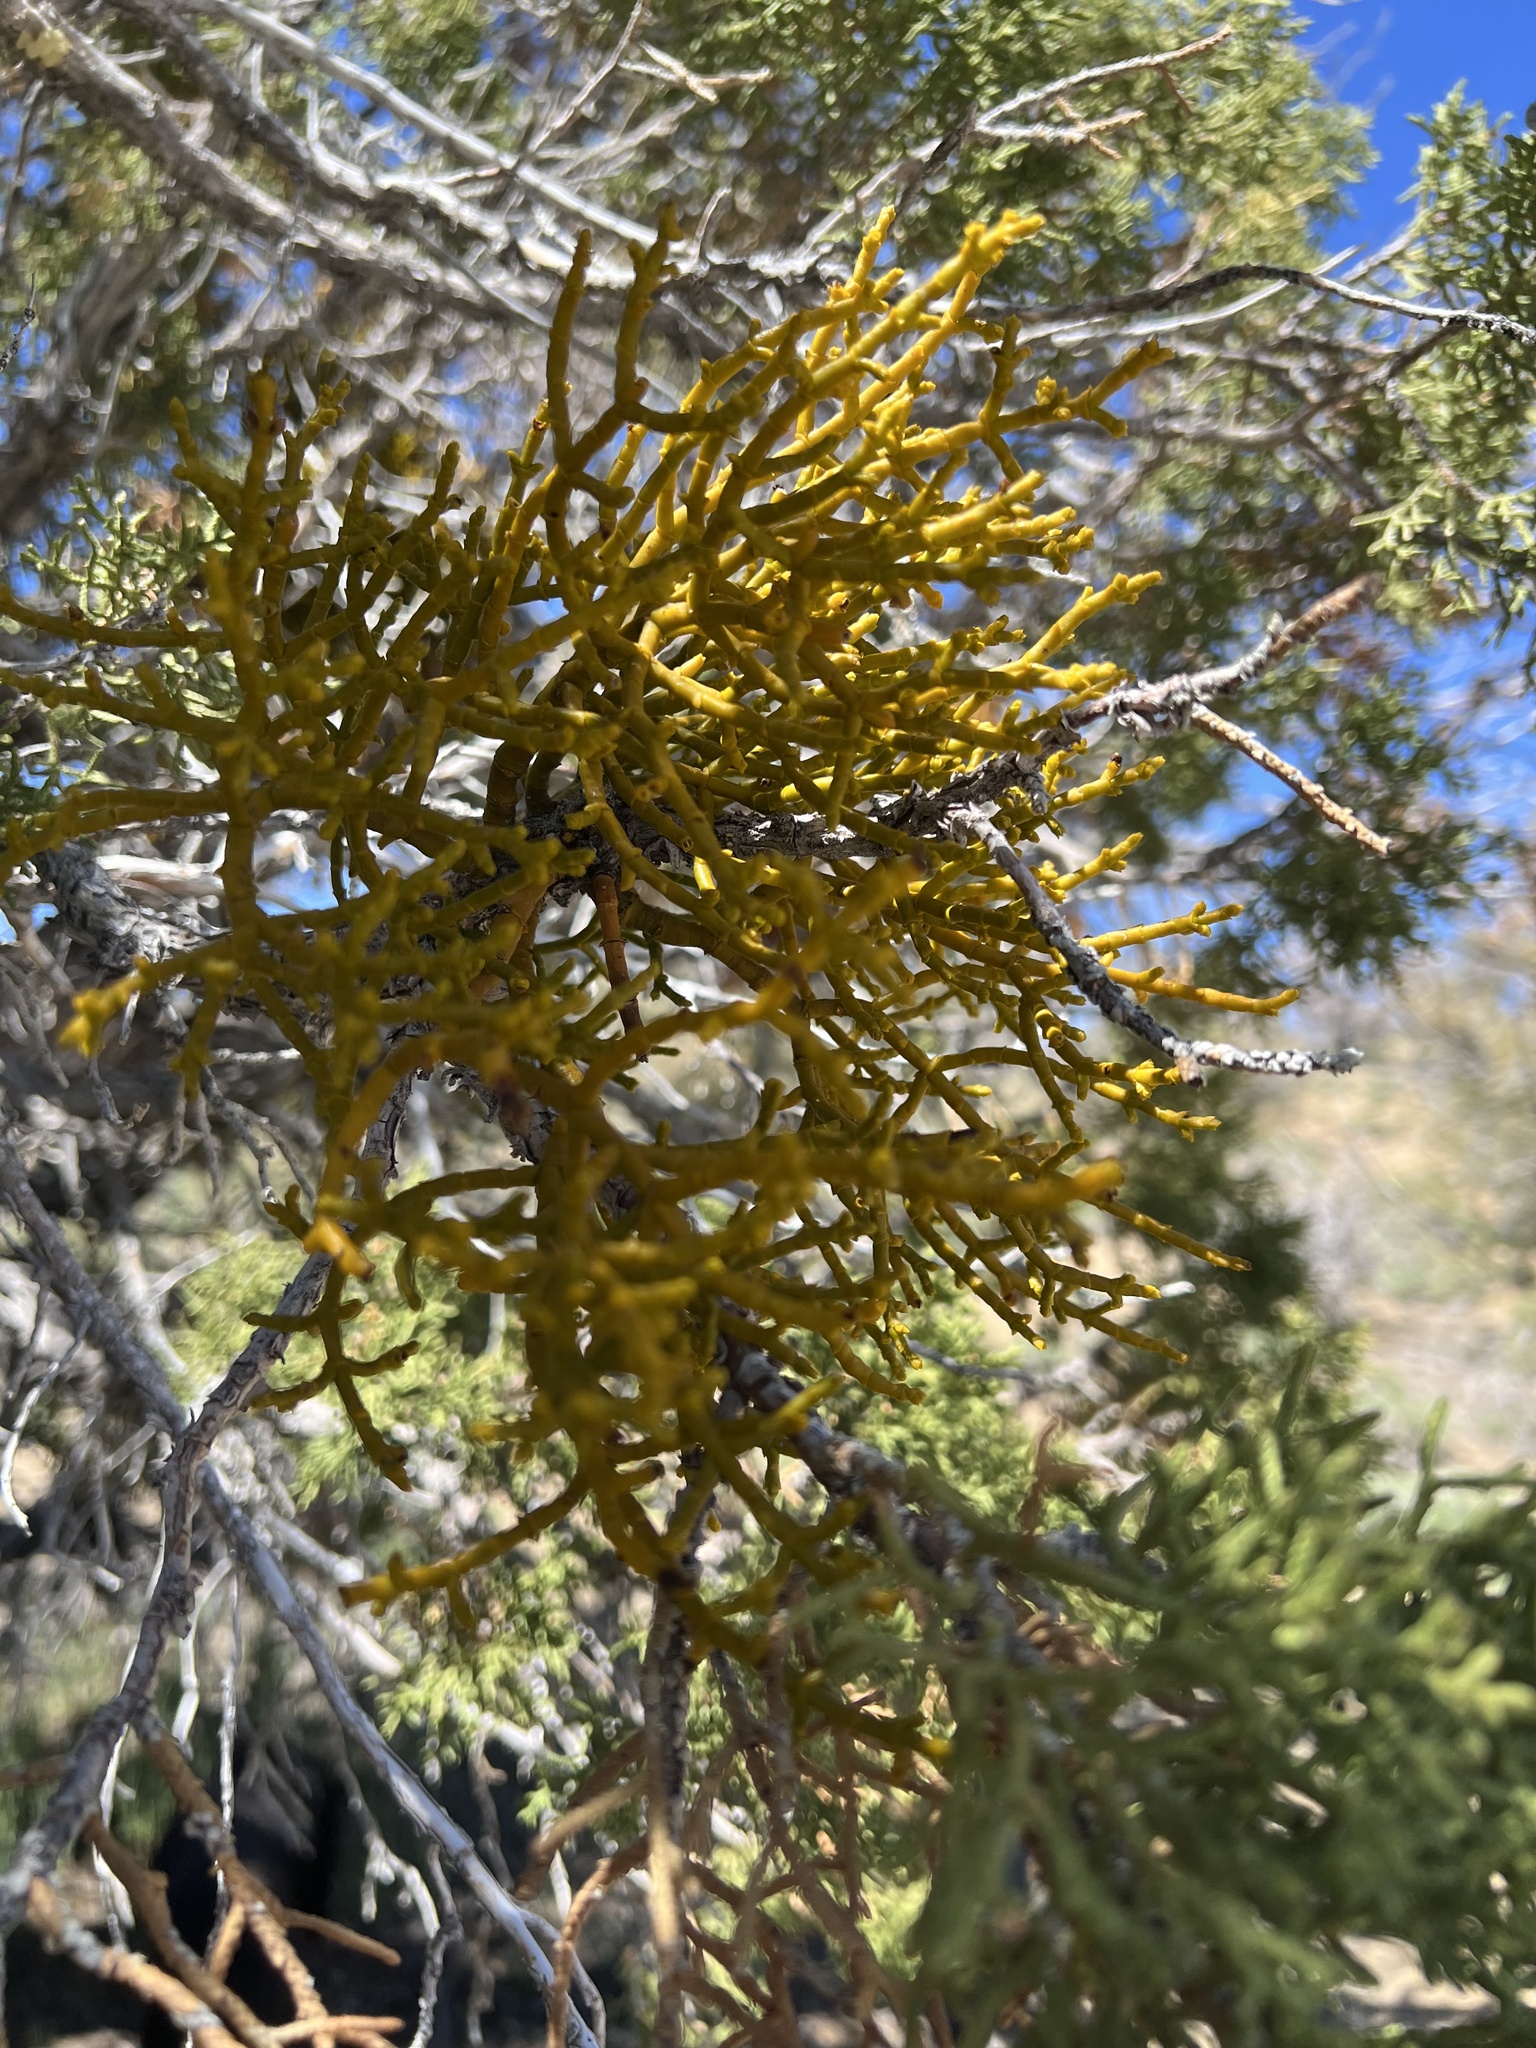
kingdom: Plantae
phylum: Tracheophyta
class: Magnoliopsida
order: Santalales
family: Viscaceae
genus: Phoradendron
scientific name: Phoradendron juniperinum
